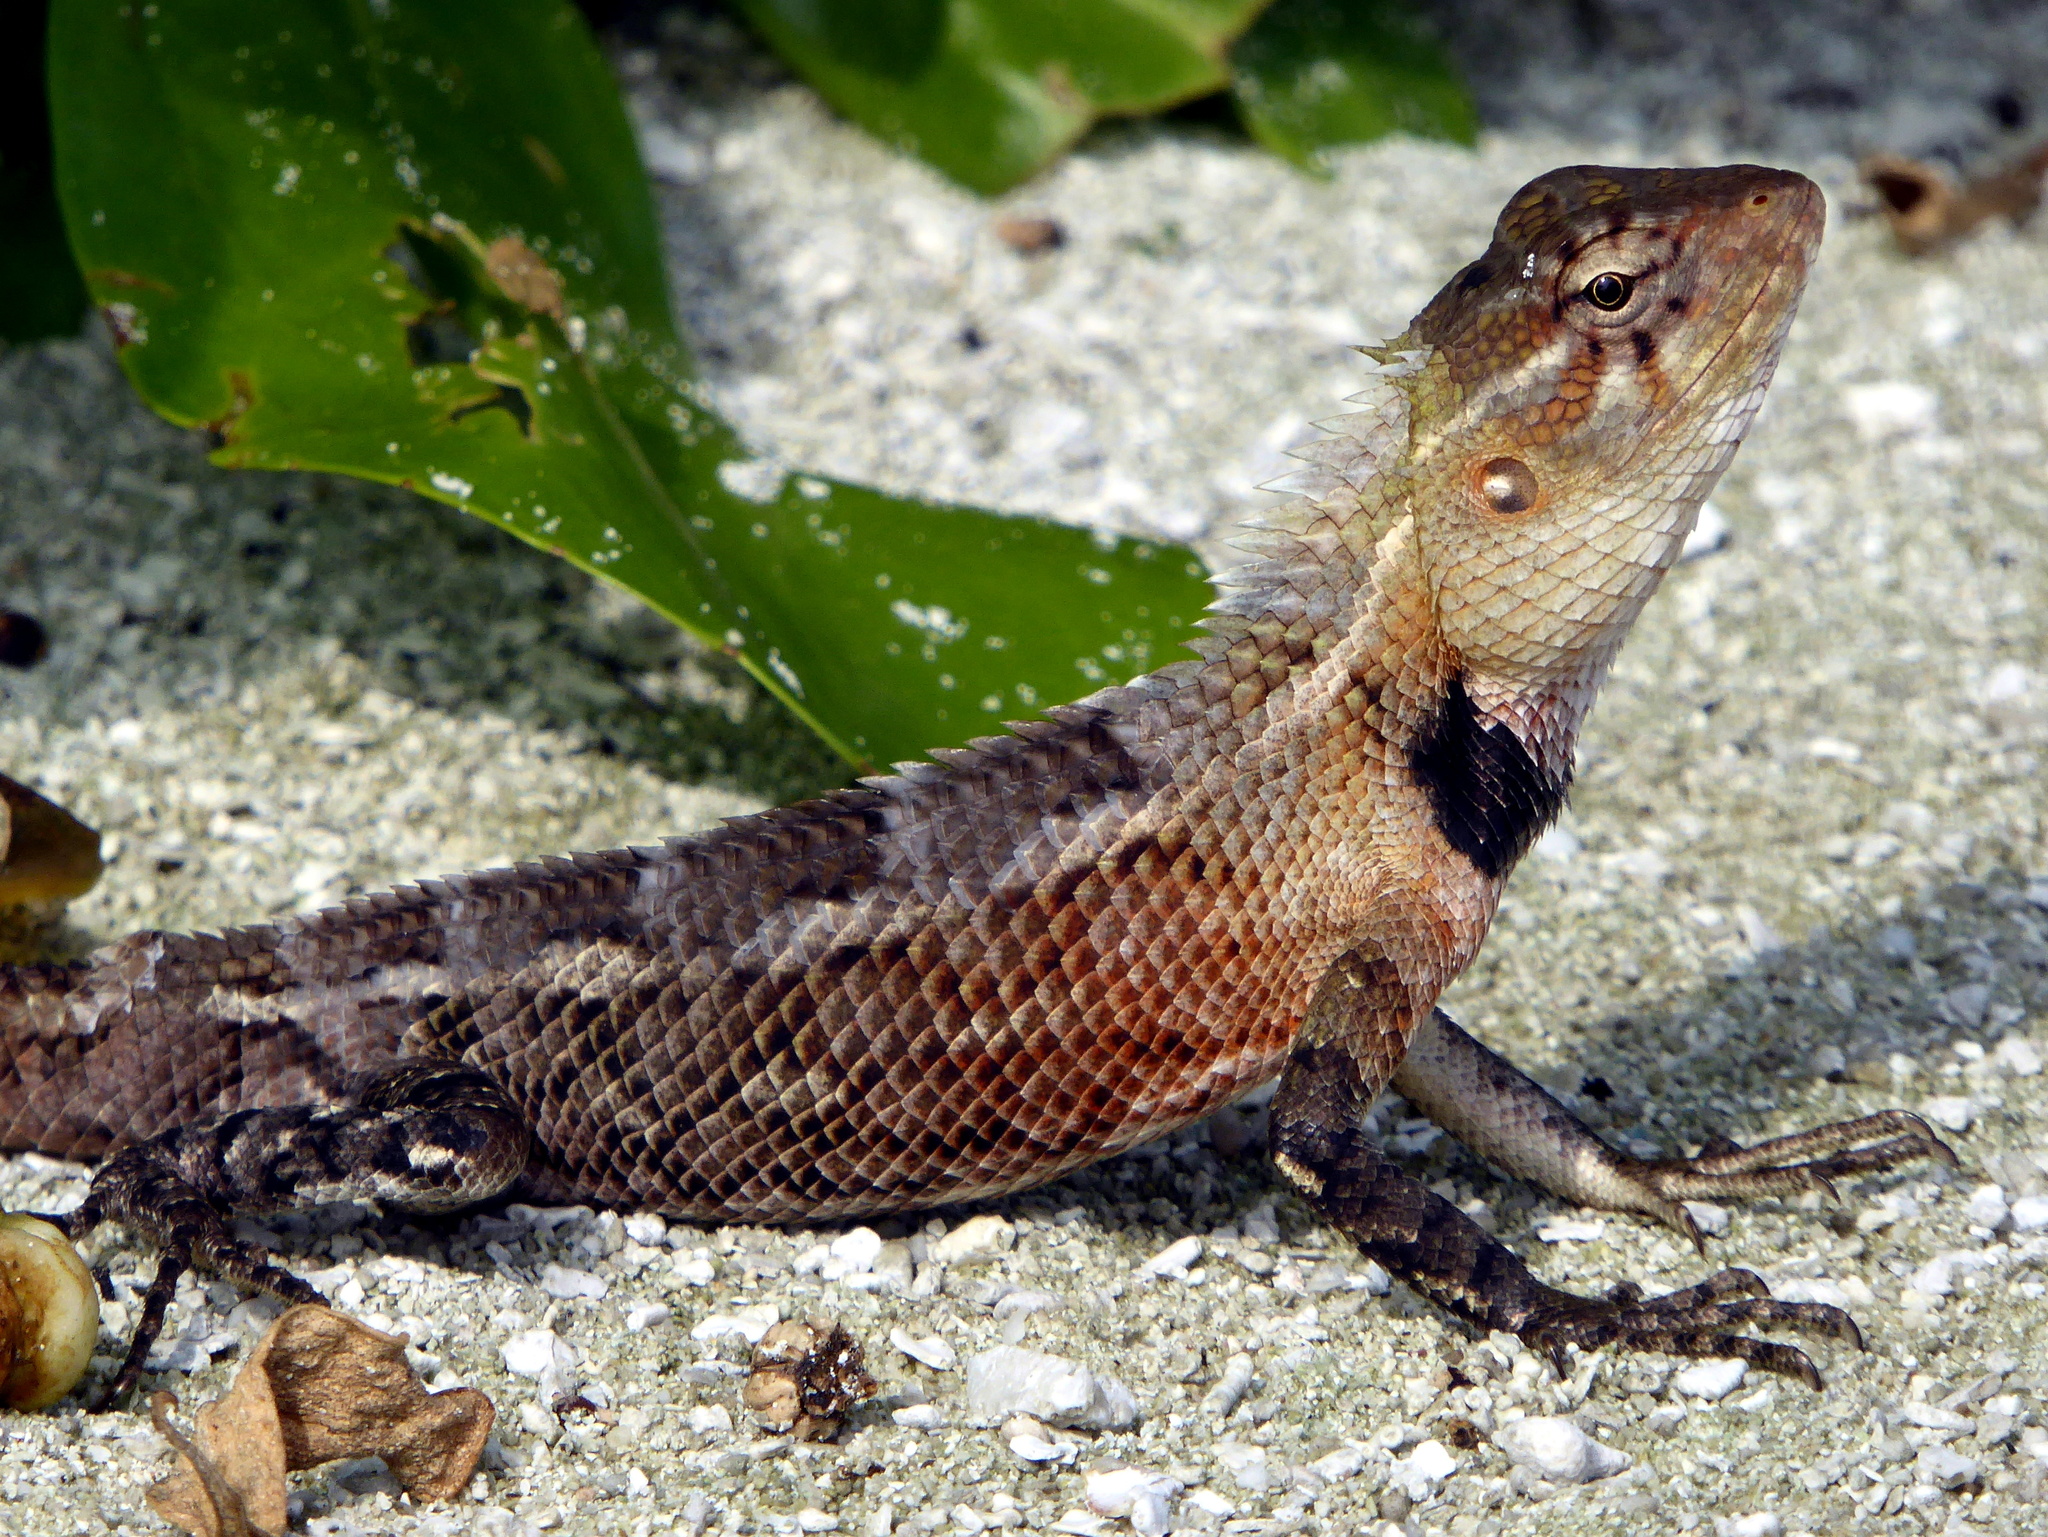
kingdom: Animalia
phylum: Chordata
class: Squamata
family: Agamidae
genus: Calotes
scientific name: Calotes versicolor
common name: Oriental garden lizard
